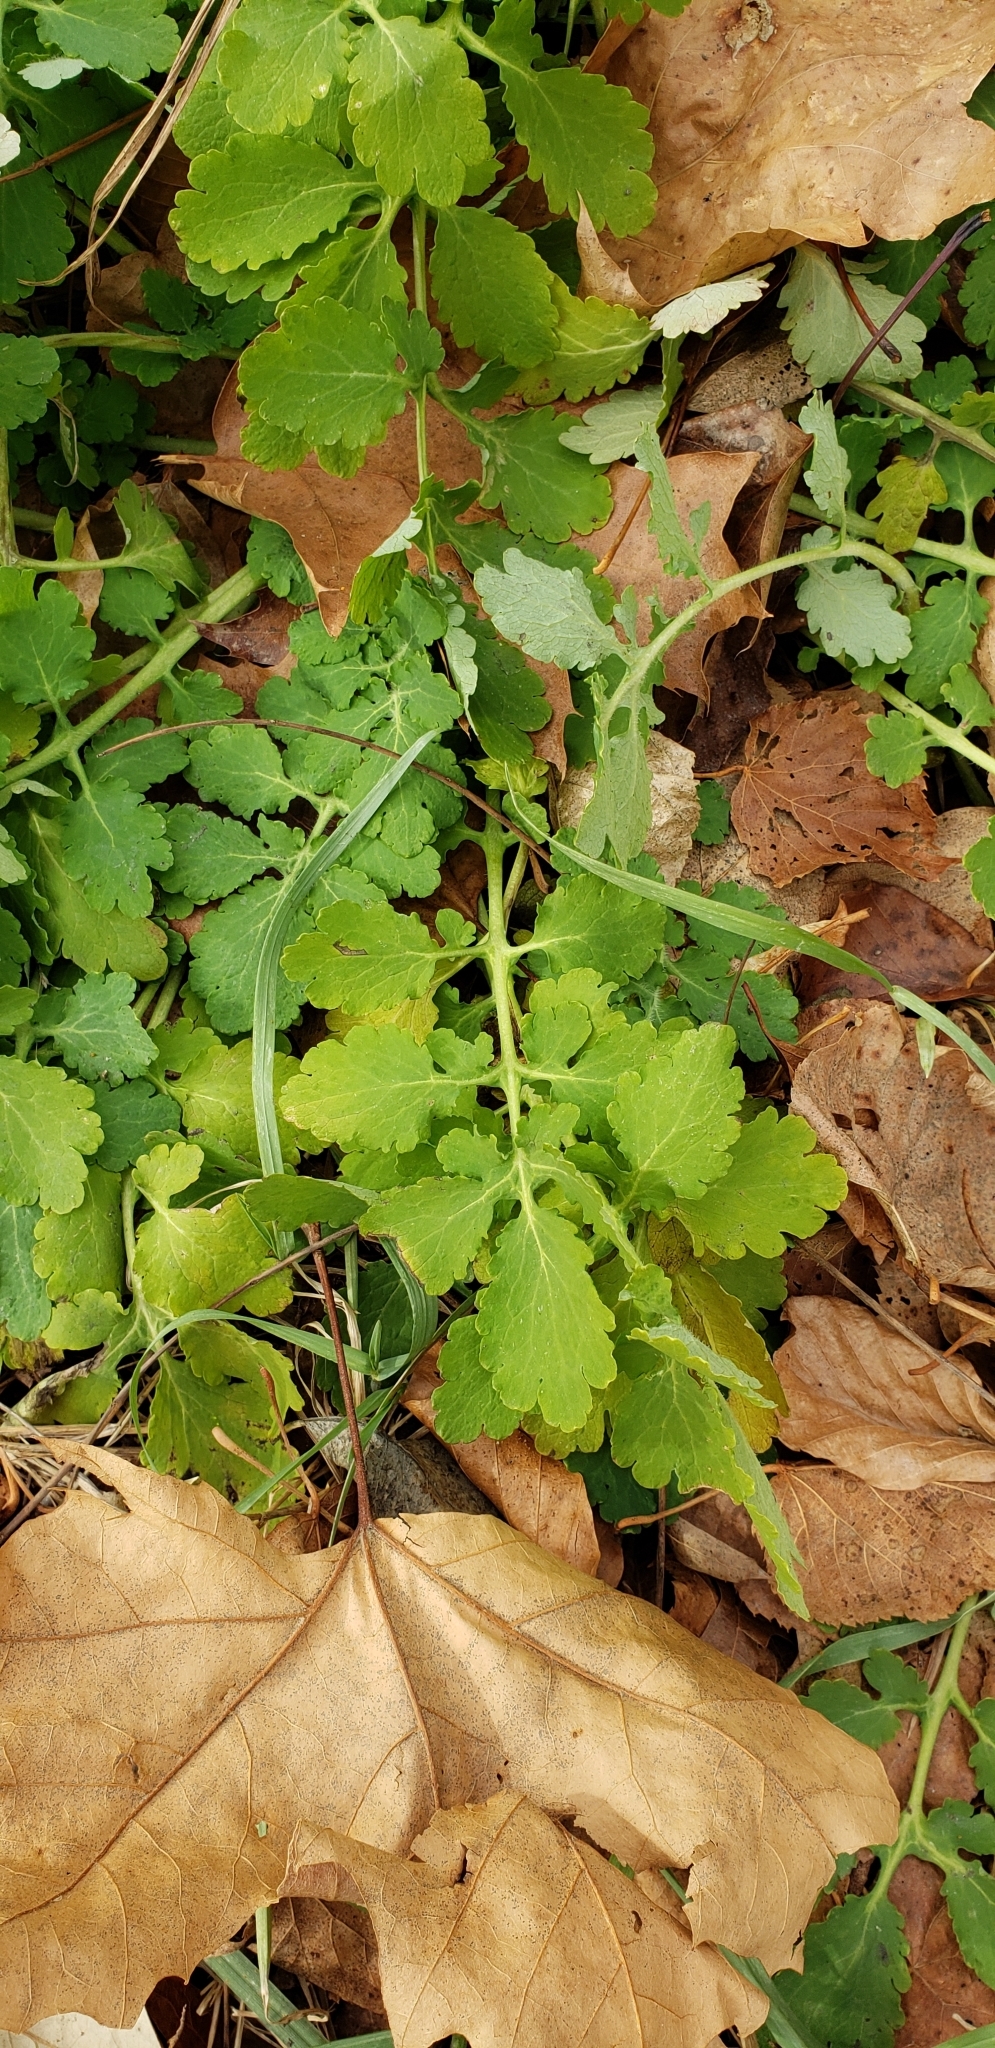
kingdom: Plantae
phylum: Tracheophyta
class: Magnoliopsida
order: Ranunculales
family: Papaveraceae
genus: Chelidonium
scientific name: Chelidonium majus
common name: Greater celandine
